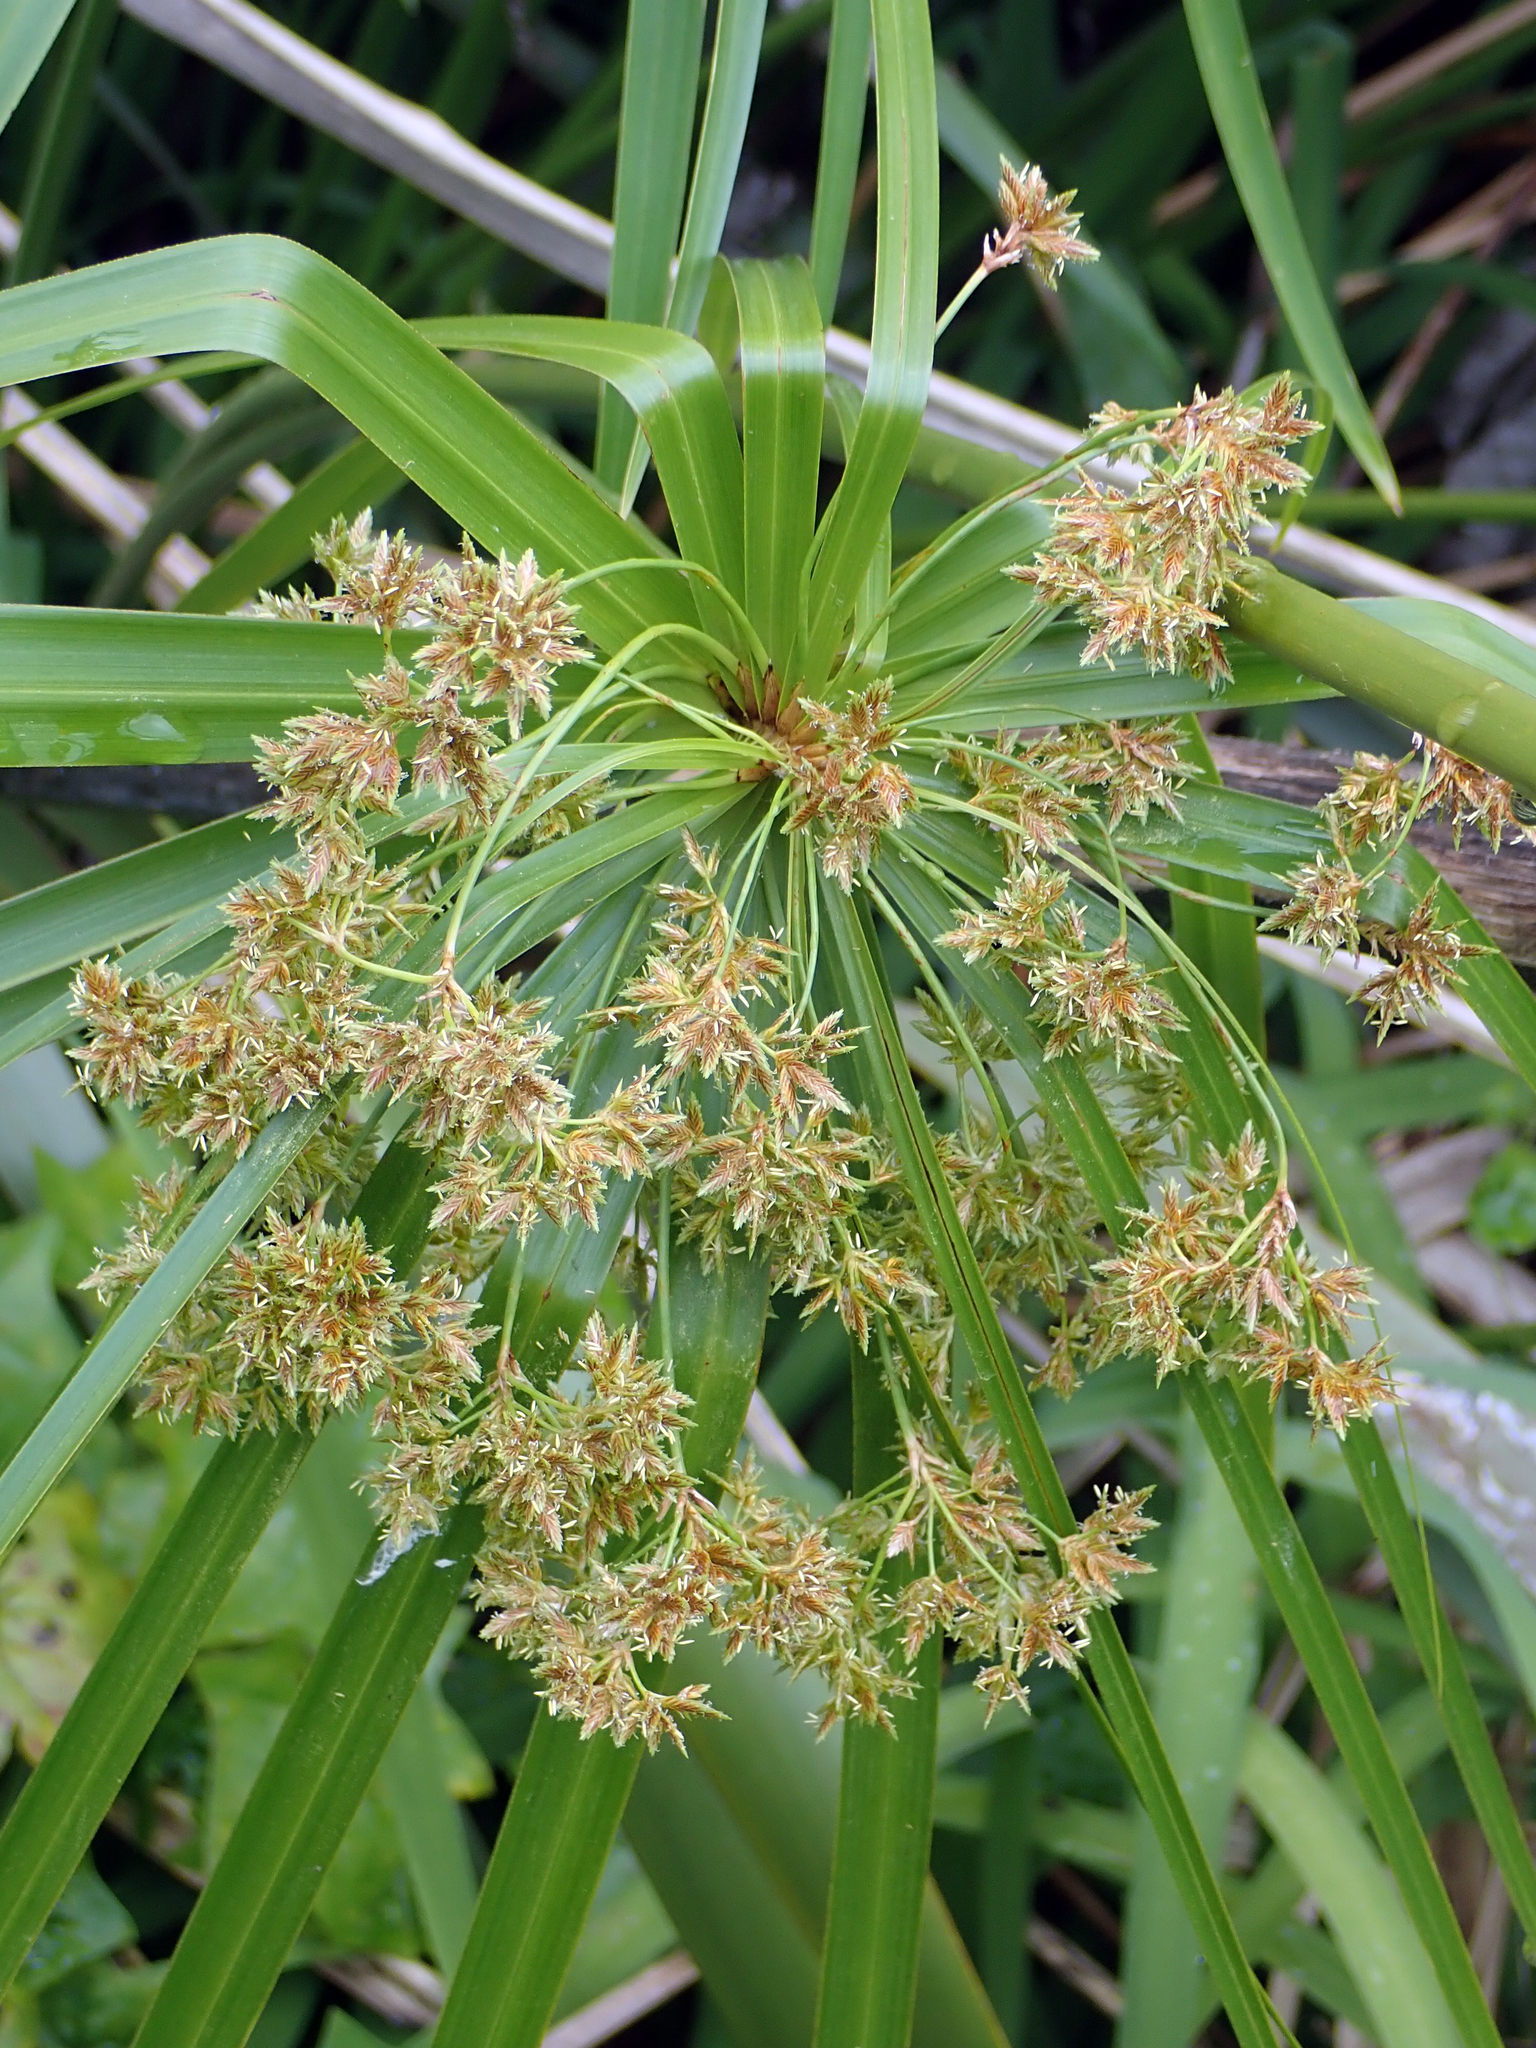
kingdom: Plantae
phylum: Tracheophyta
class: Liliopsida
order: Poales
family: Cyperaceae
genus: Cyperus
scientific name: Cyperus alternifolius
